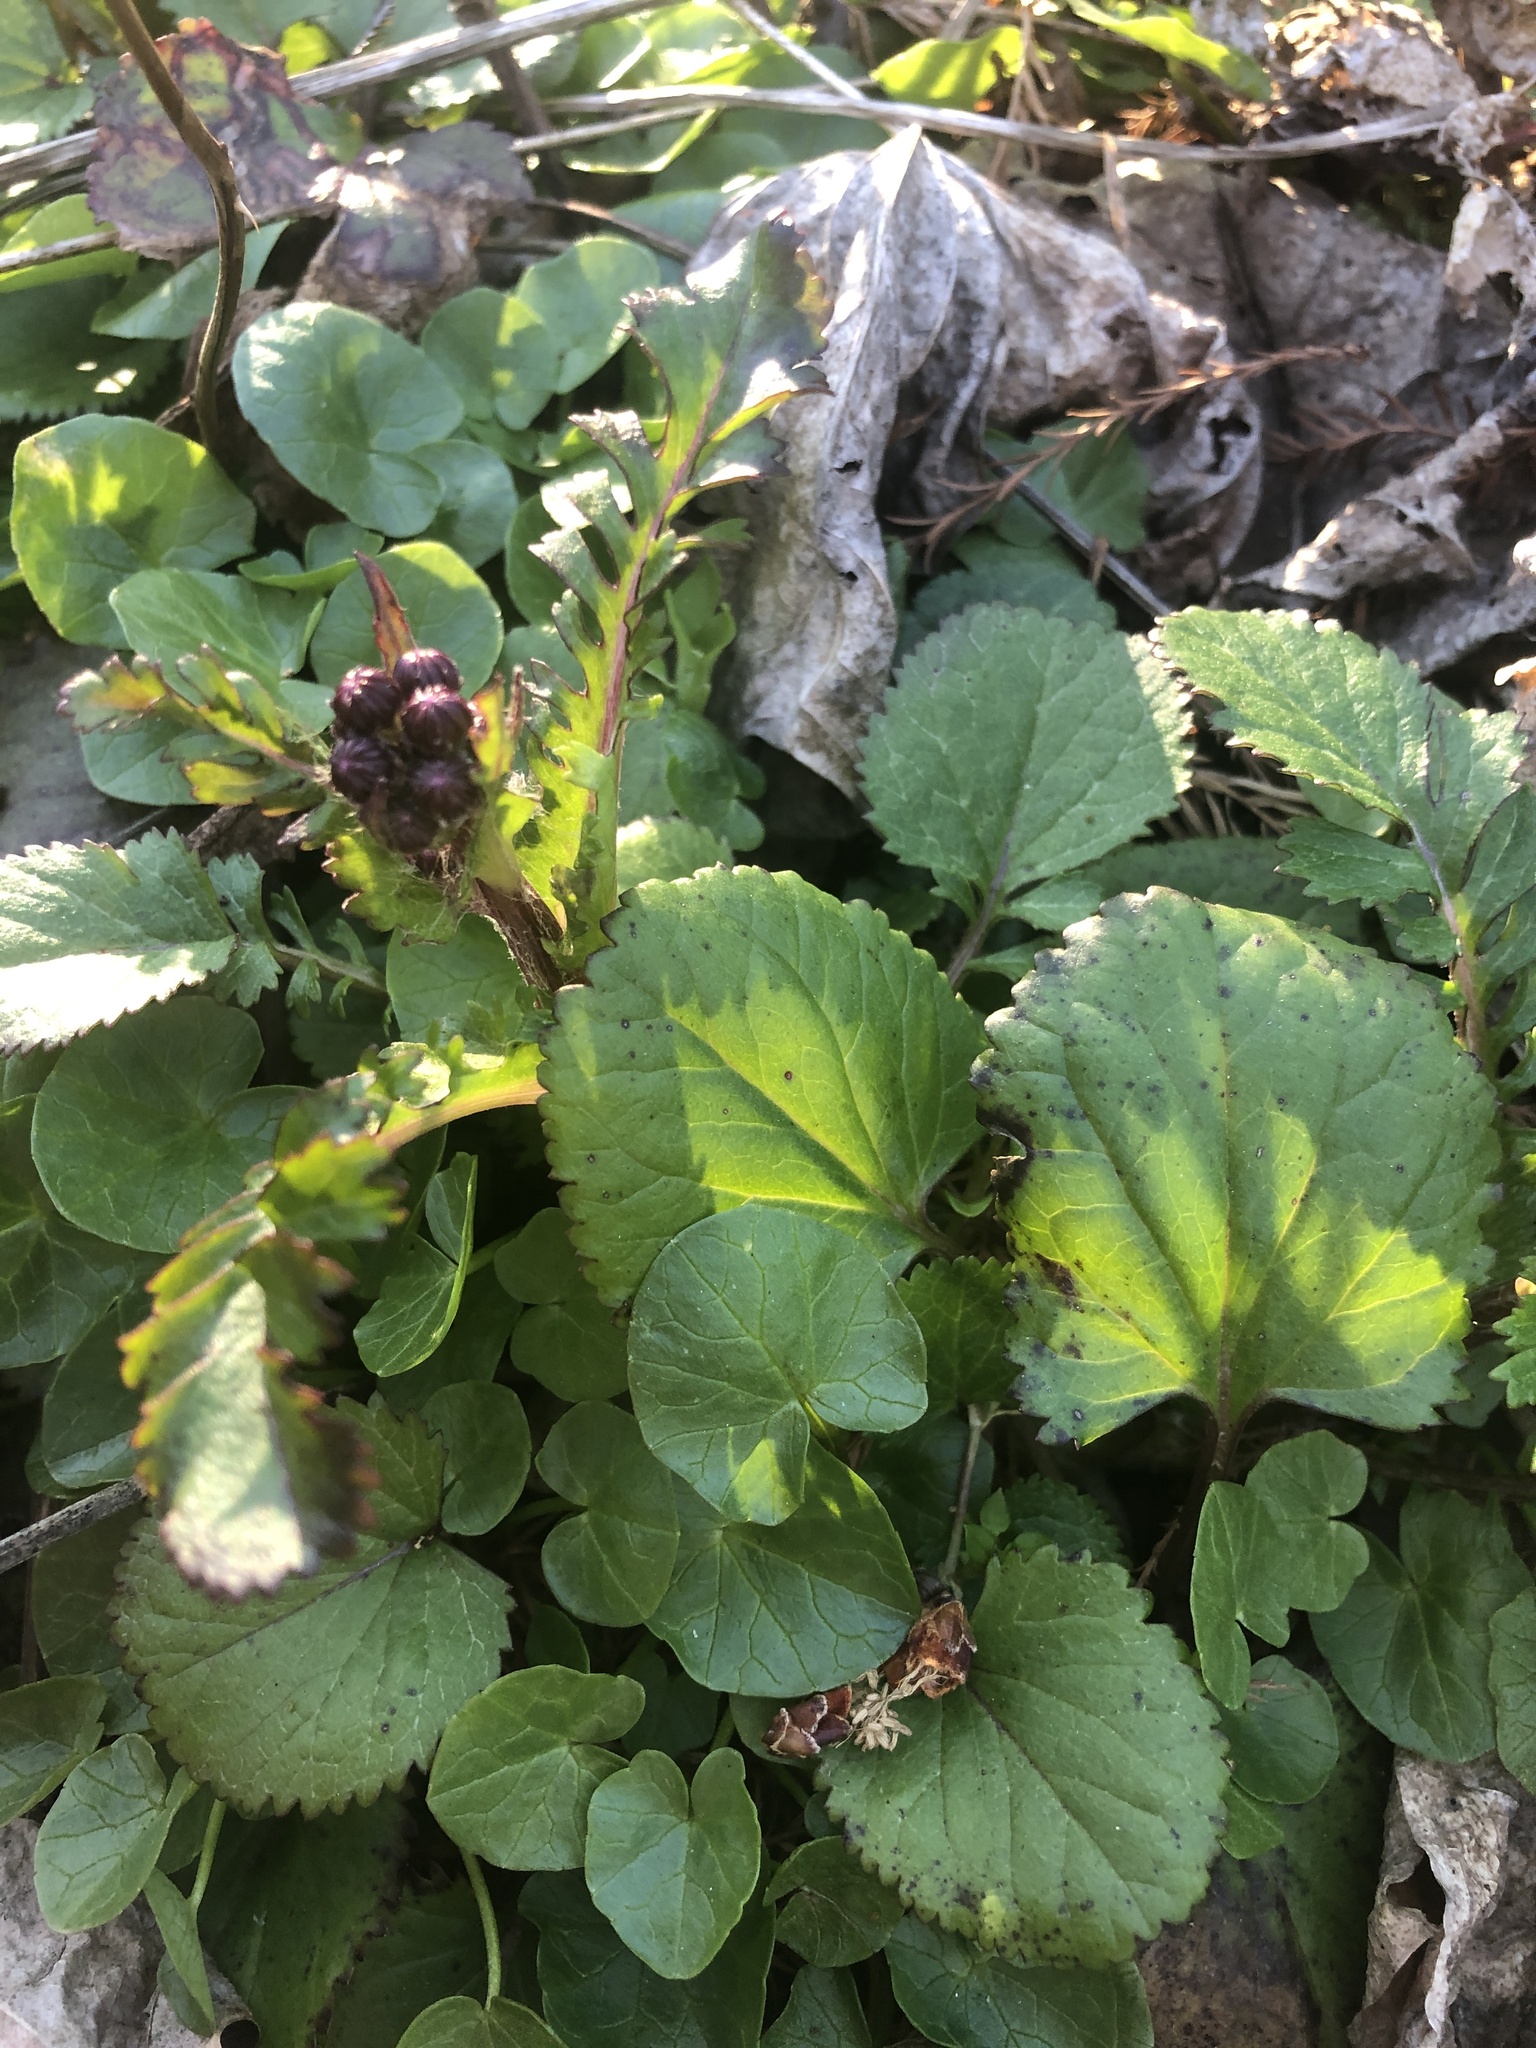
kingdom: Plantae
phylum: Tracheophyta
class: Magnoliopsida
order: Asterales
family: Asteraceae
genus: Packera
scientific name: Packera aurea
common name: Golden groundsel
